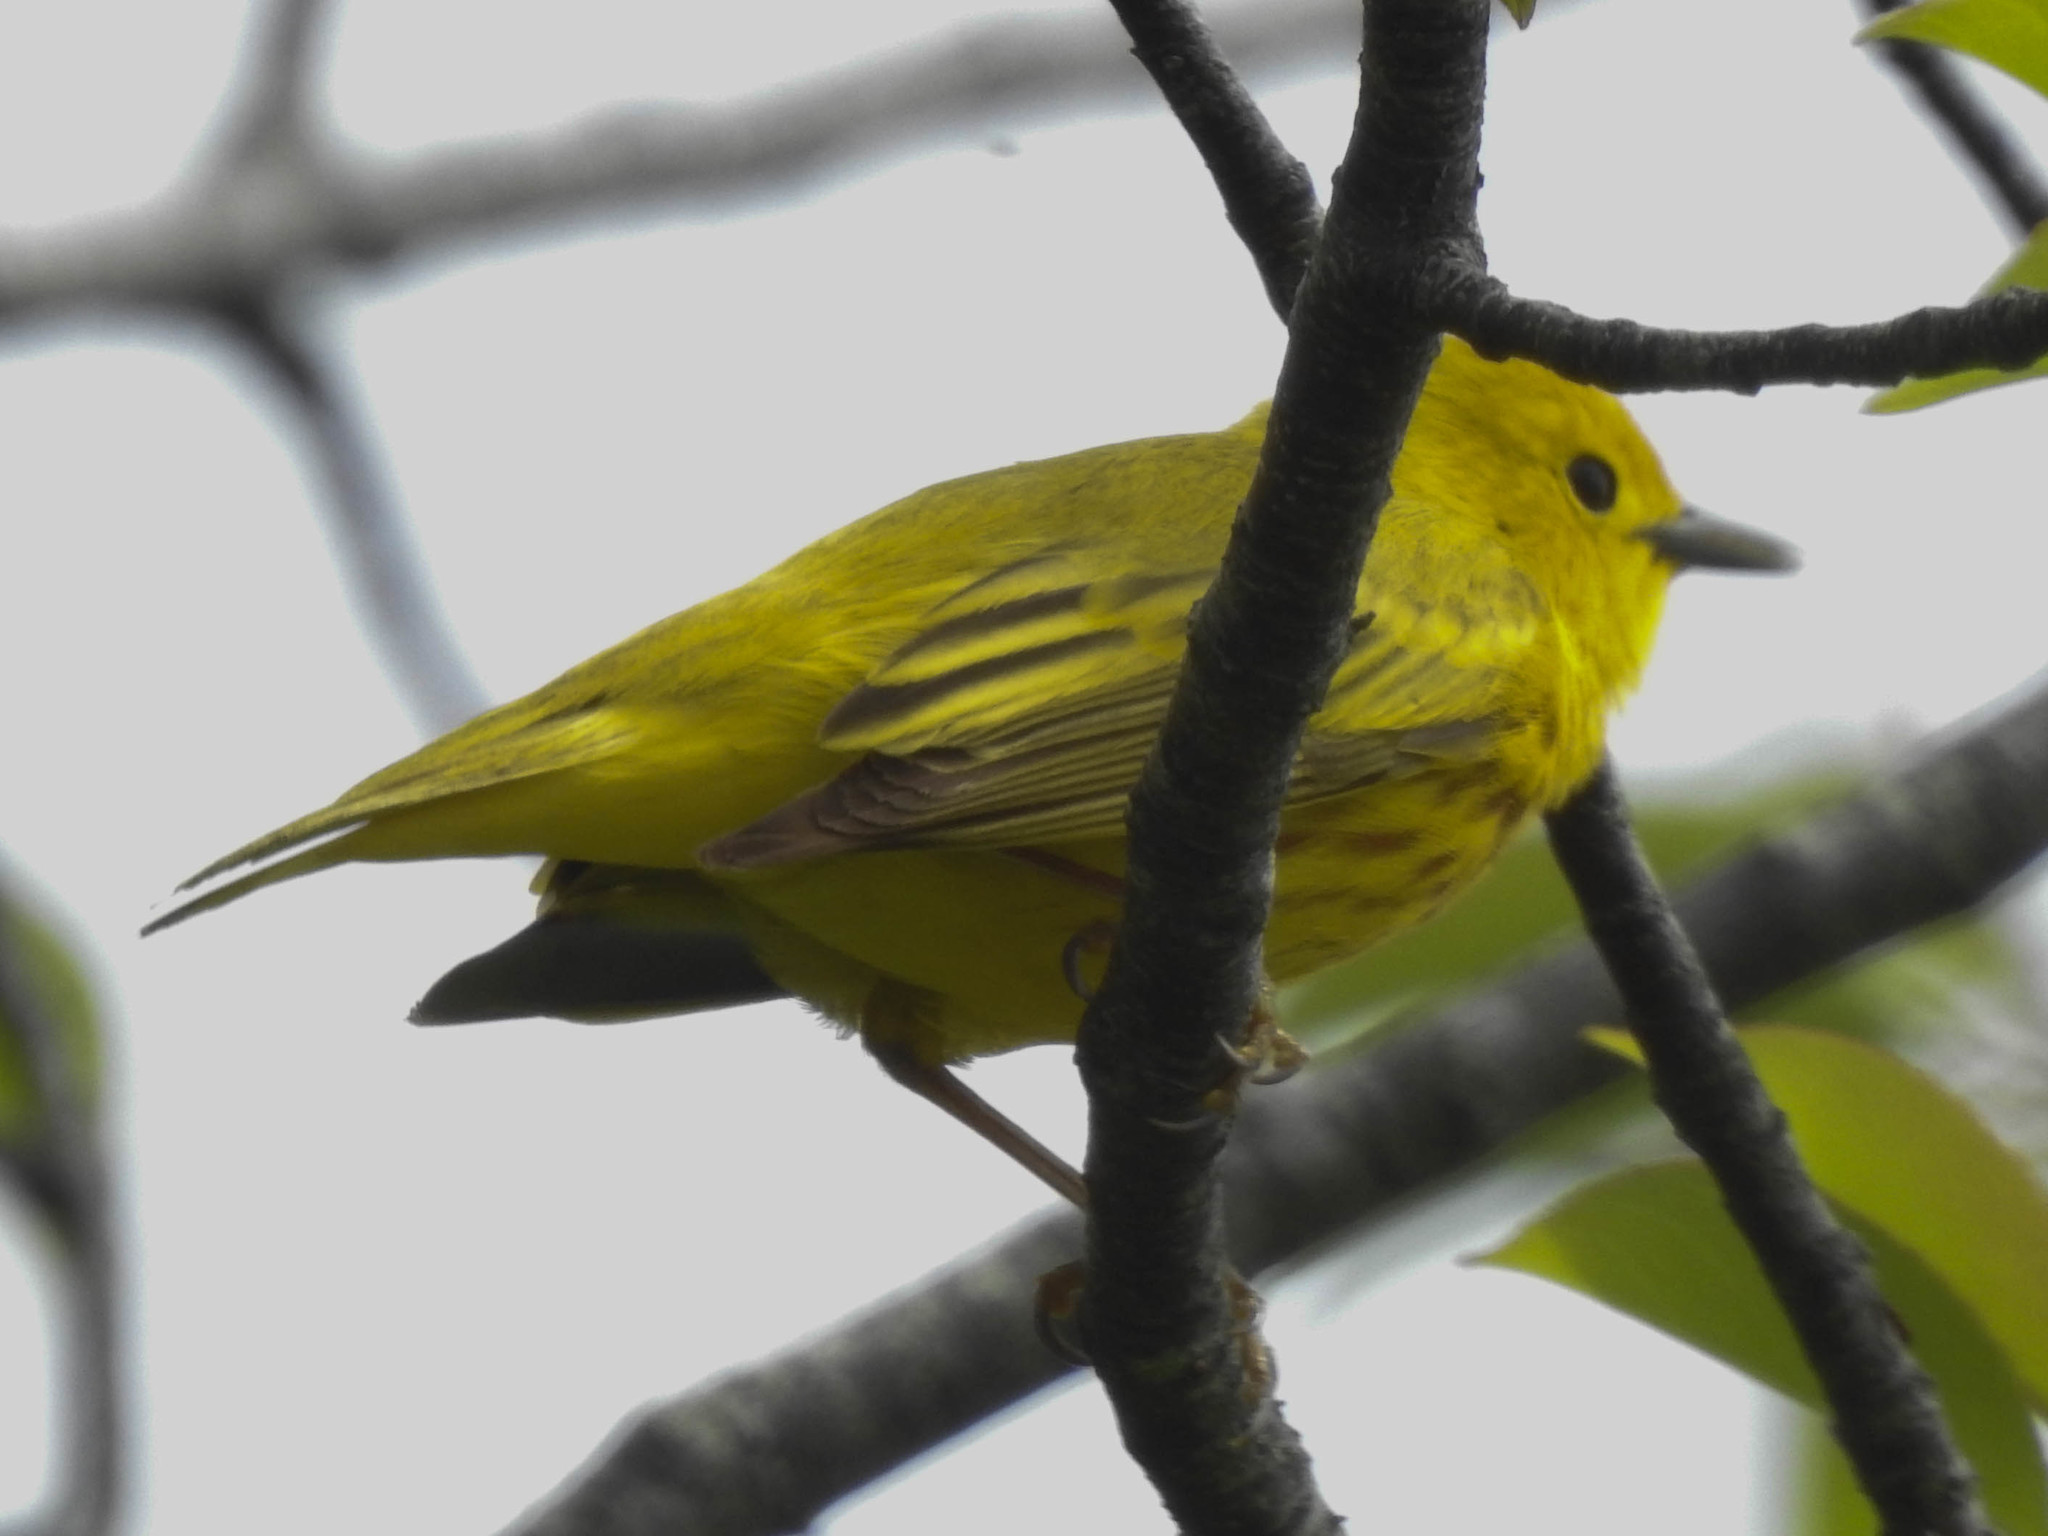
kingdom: Animalia
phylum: Chordata
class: Aves
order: Passeriformes
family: Parulidae
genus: Setophaga
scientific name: Setophaga petechia
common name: Yellow warbler
